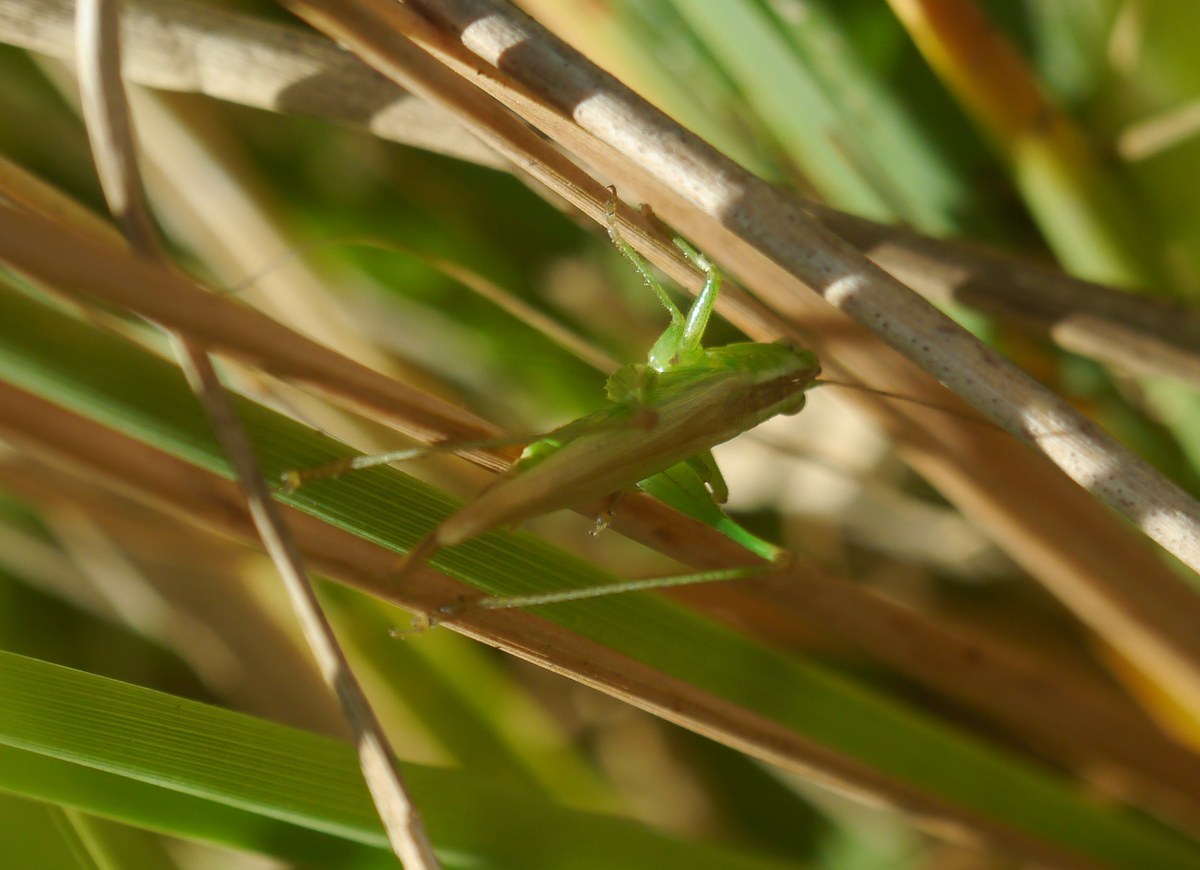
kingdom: Animalia
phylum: Arthropoda
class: Insecta
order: Orthoptera
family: Tettigoniidae
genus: Conocephalus
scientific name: Conocephalus fuscus
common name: Long-winged conehead
